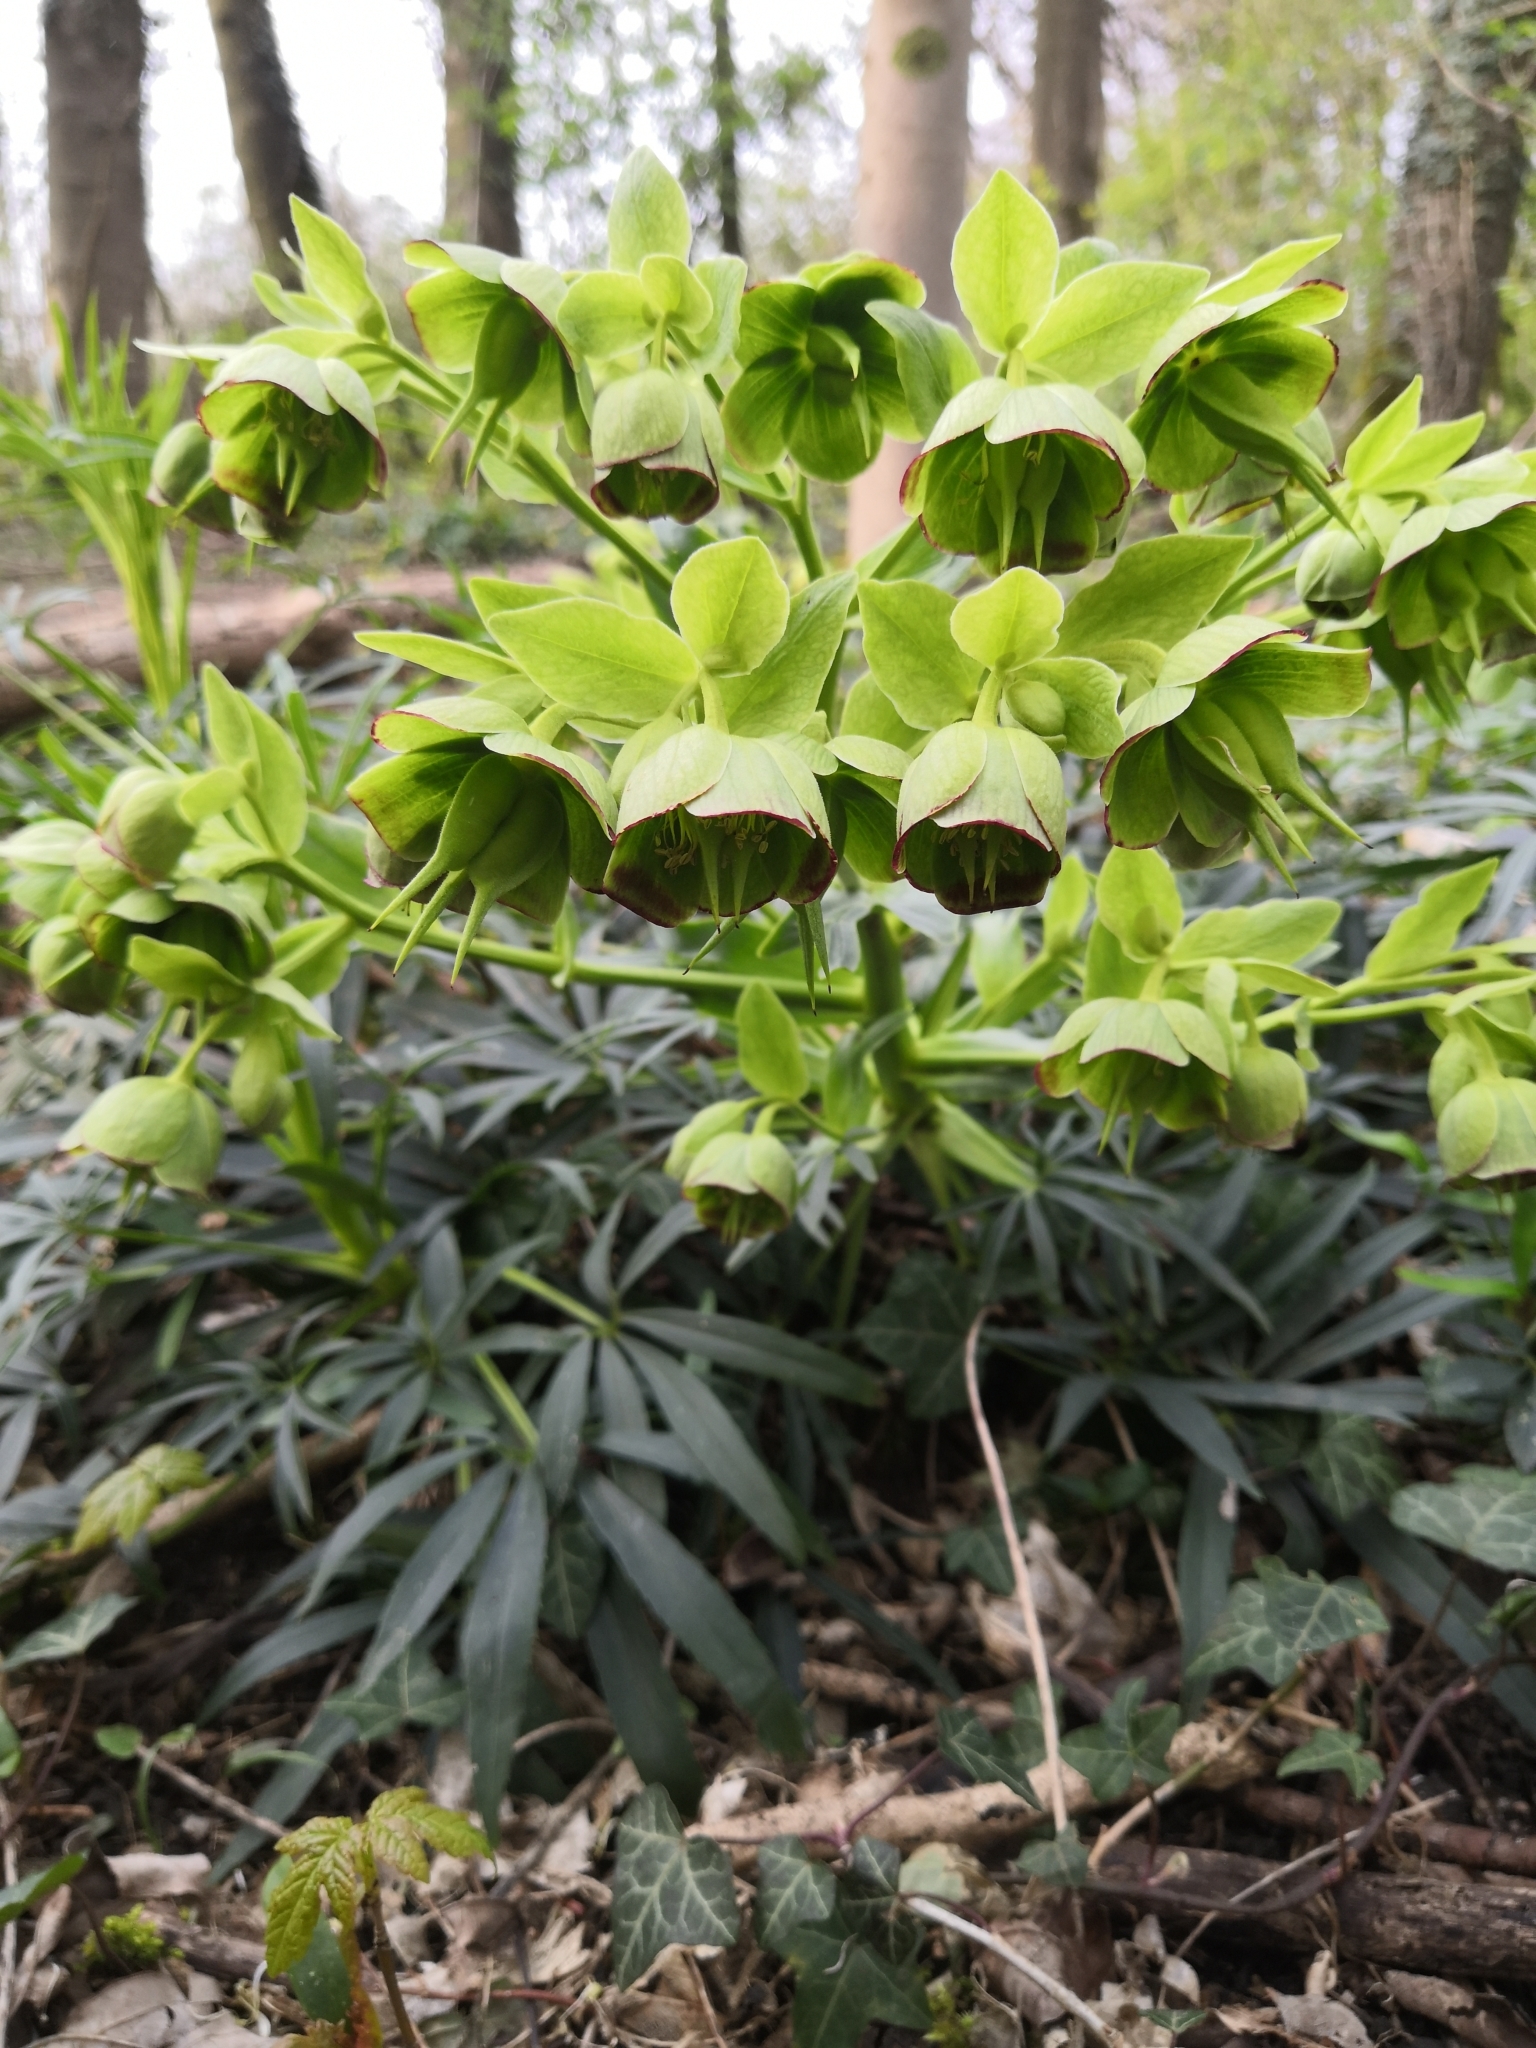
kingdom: Plantae
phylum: Tracheophyta
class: Magnoliopsida
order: Ranunculales
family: Ranunculaceae
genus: Helleborus
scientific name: Helleborus foetidus
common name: Stinking hellebore
